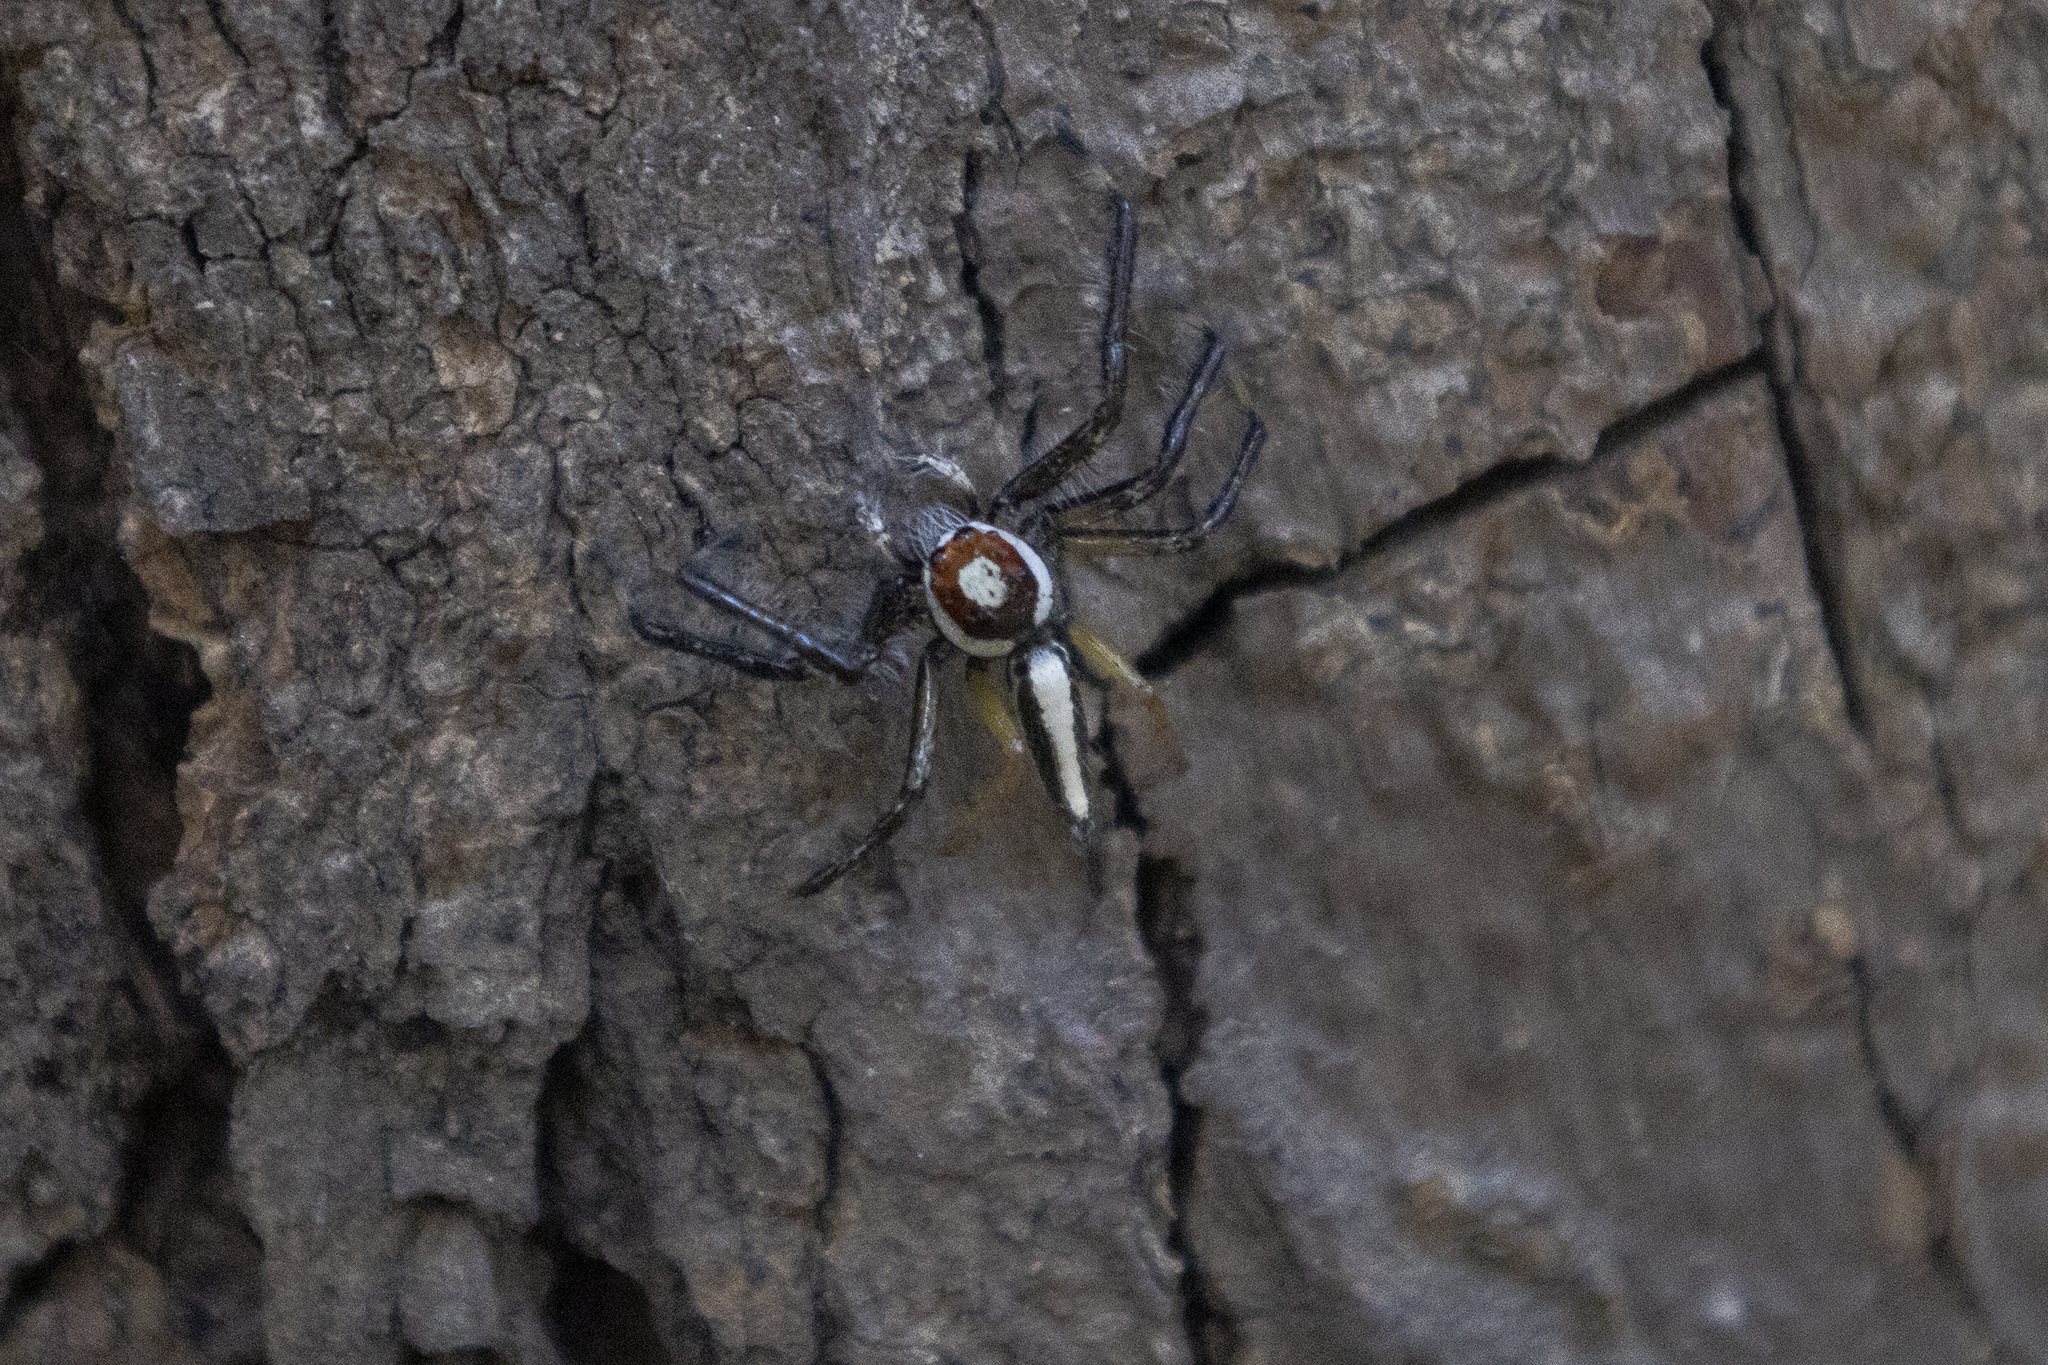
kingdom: Animalia
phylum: Arthropoda
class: Arachnida
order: Araneae
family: Salticidae
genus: Telamonia
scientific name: Telamonia dimidiata
